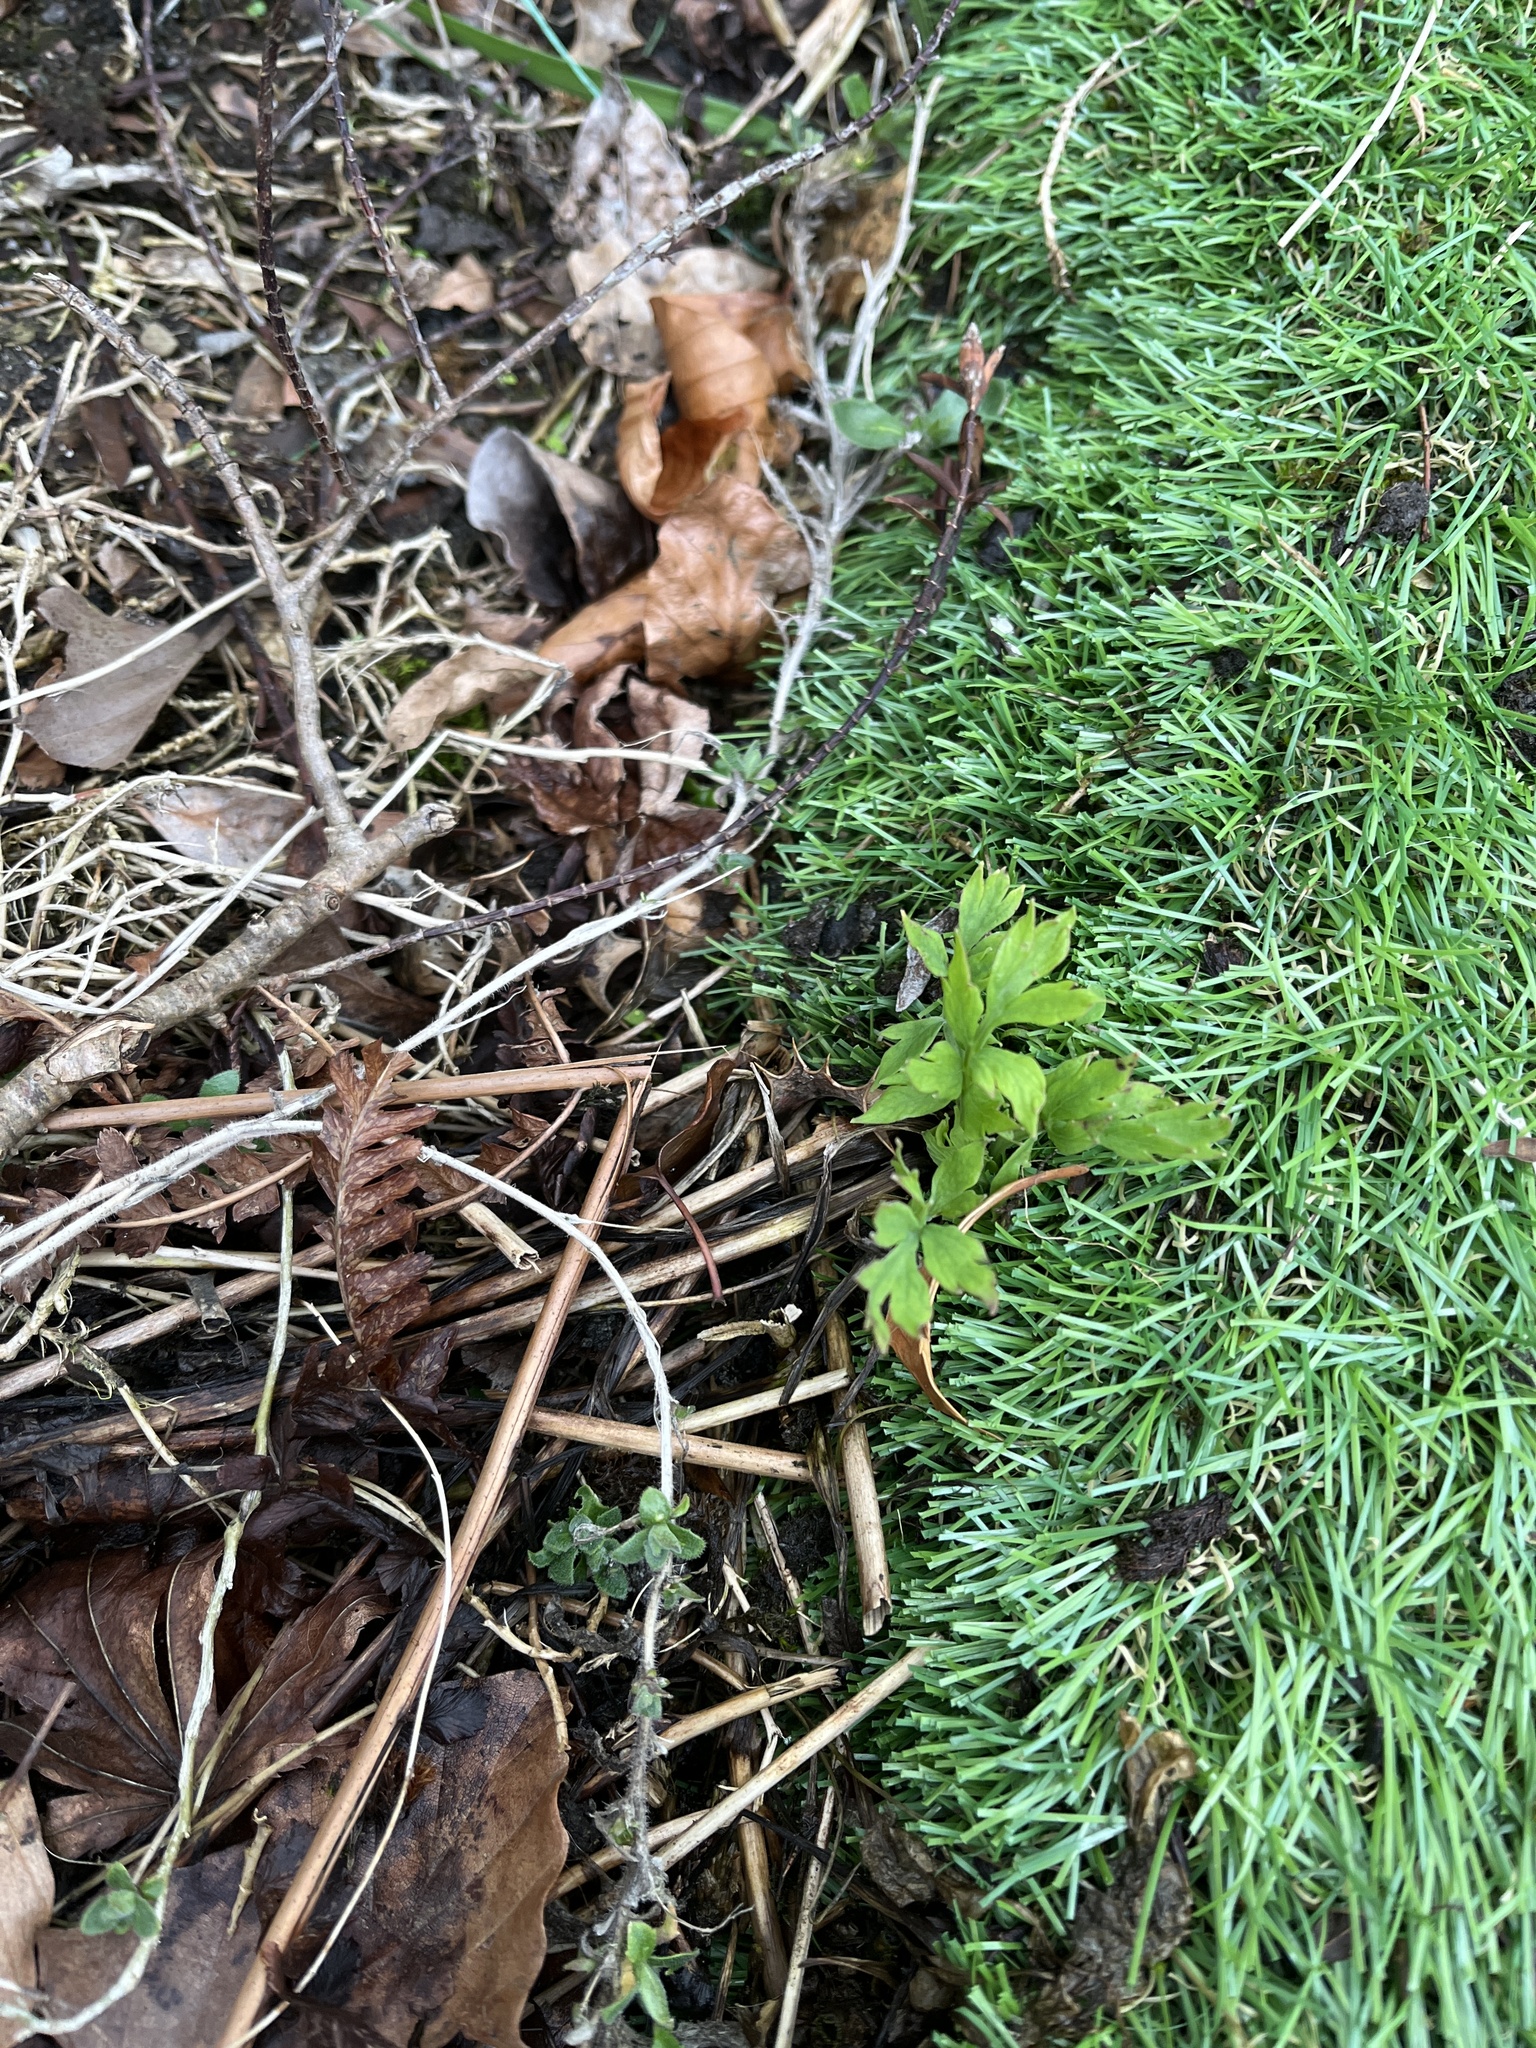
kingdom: Plantae
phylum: Tracheophyta
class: Magnoliopsida
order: Ranunculales
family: Papaveraceae
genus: Papaver
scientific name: Papaver cambricum
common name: Poppy
